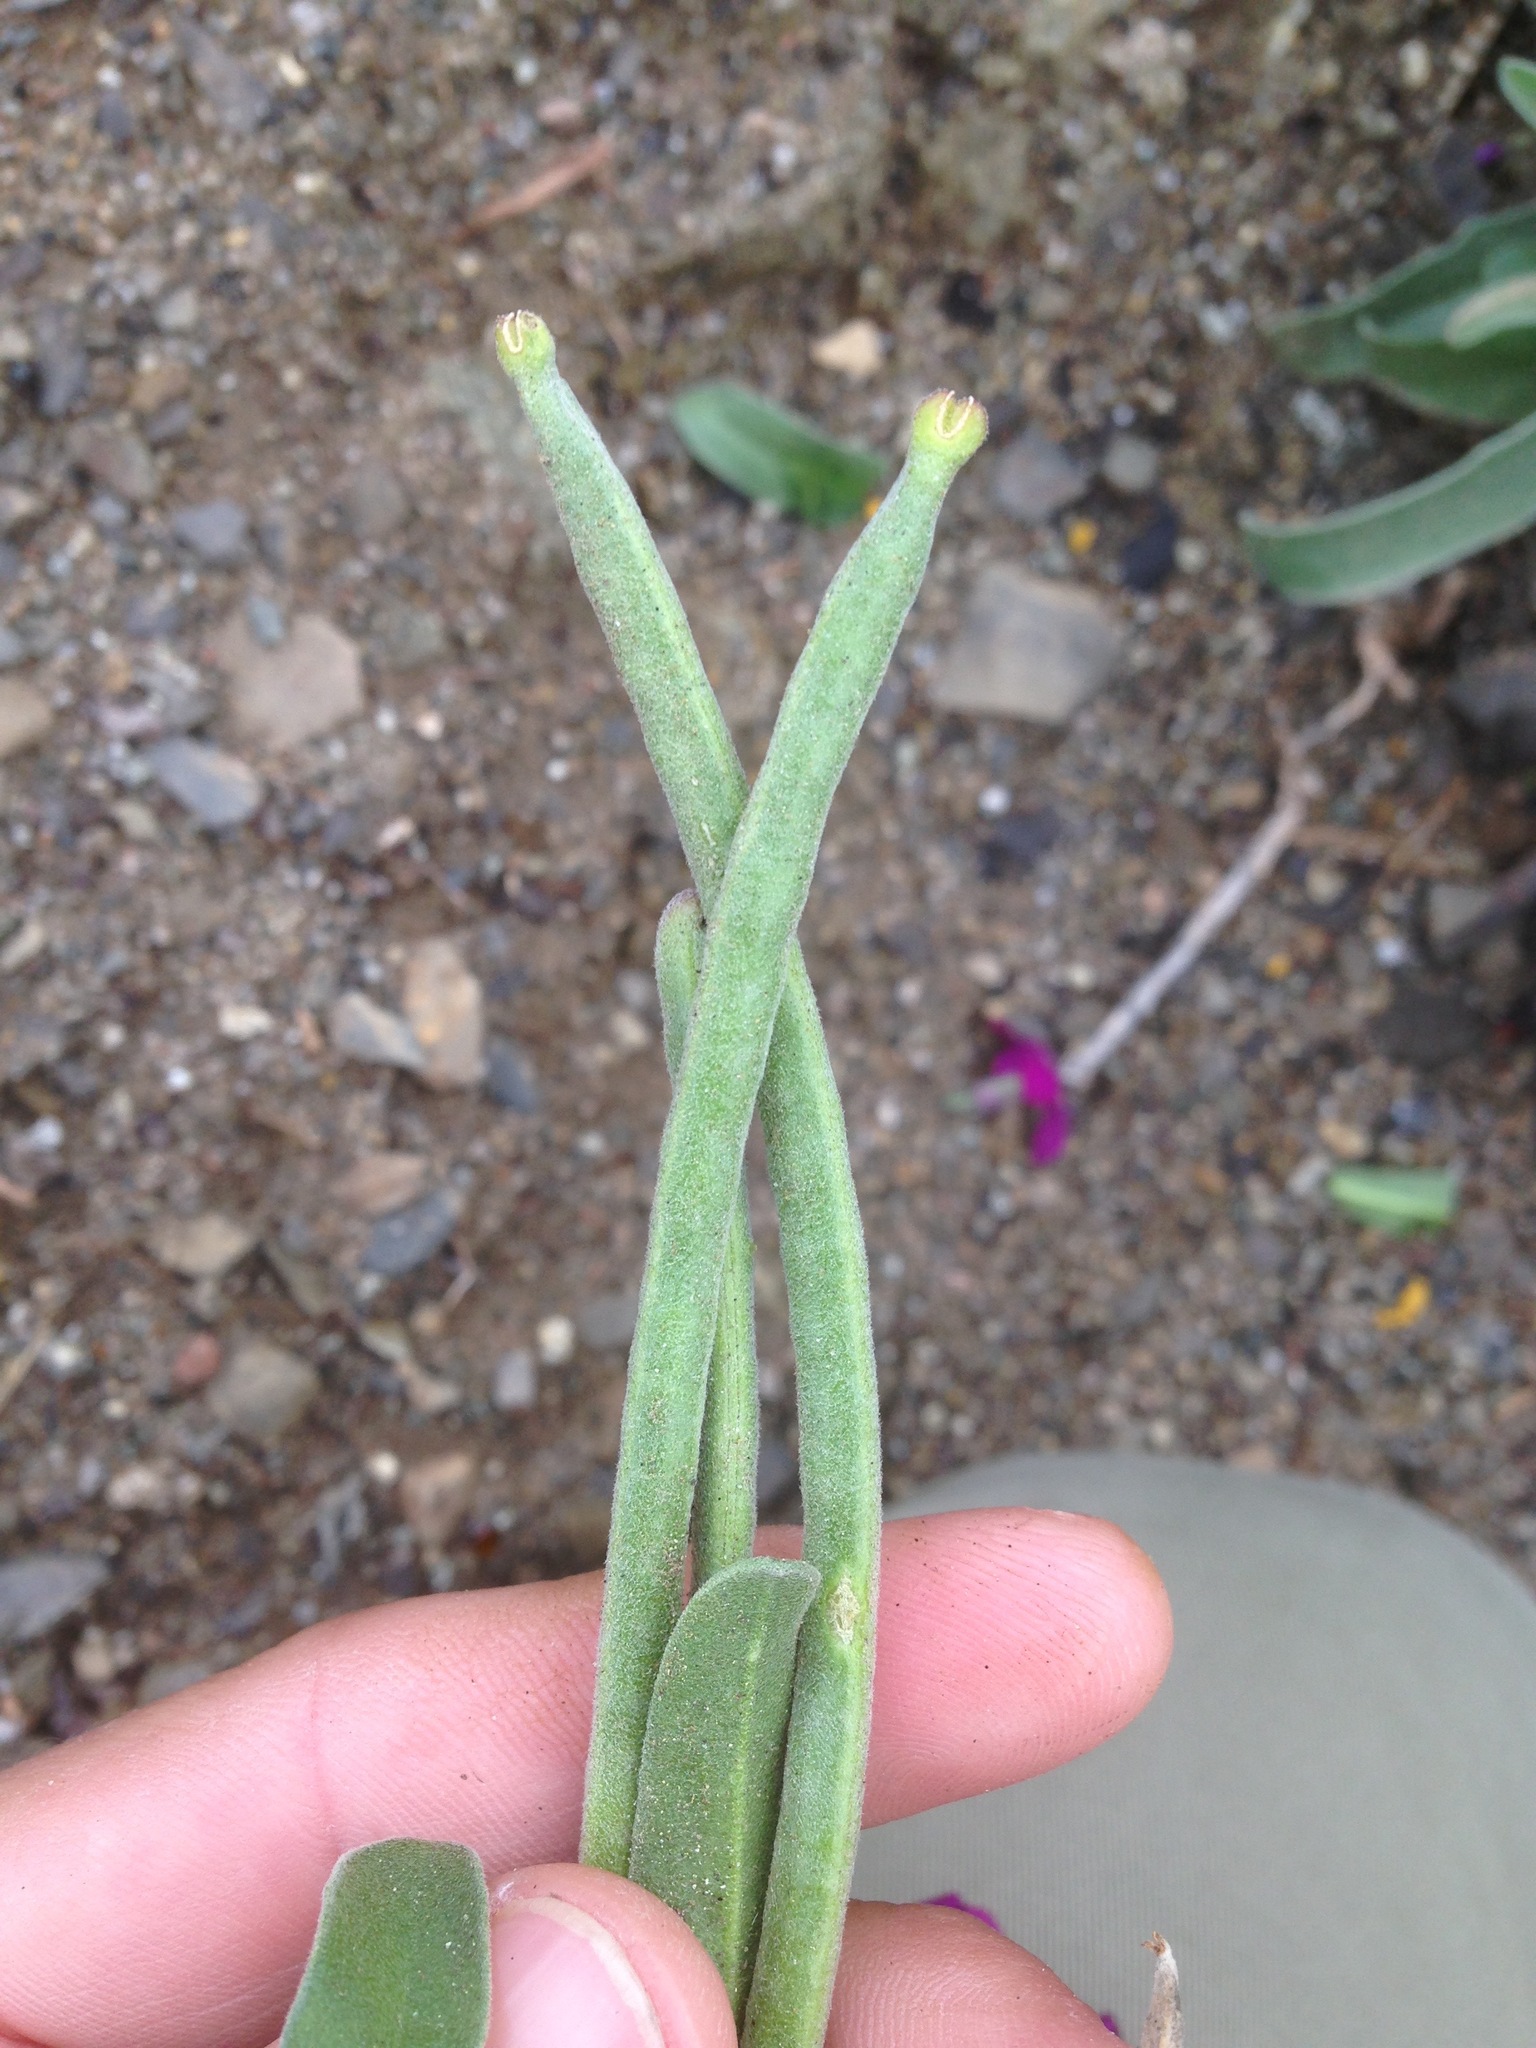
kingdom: Plantae
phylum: Tracheophyta
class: Magnoliopsida
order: Brassicales
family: Brassicaceae
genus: Matthiola
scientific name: Matthiola incana
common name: Hoary stock
